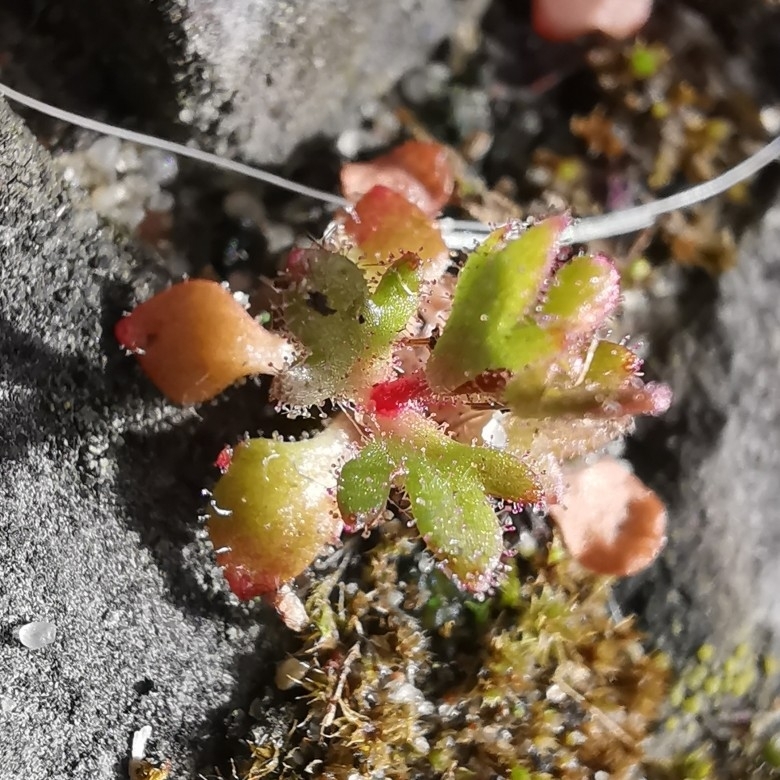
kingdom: Plantae
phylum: Tracheophyta
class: Magnoliopsida
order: Saxifragales
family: Saxifragaceae
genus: Saxifraga
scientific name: Saxifraga tridactylites
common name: Rue-leaved saxifrage
